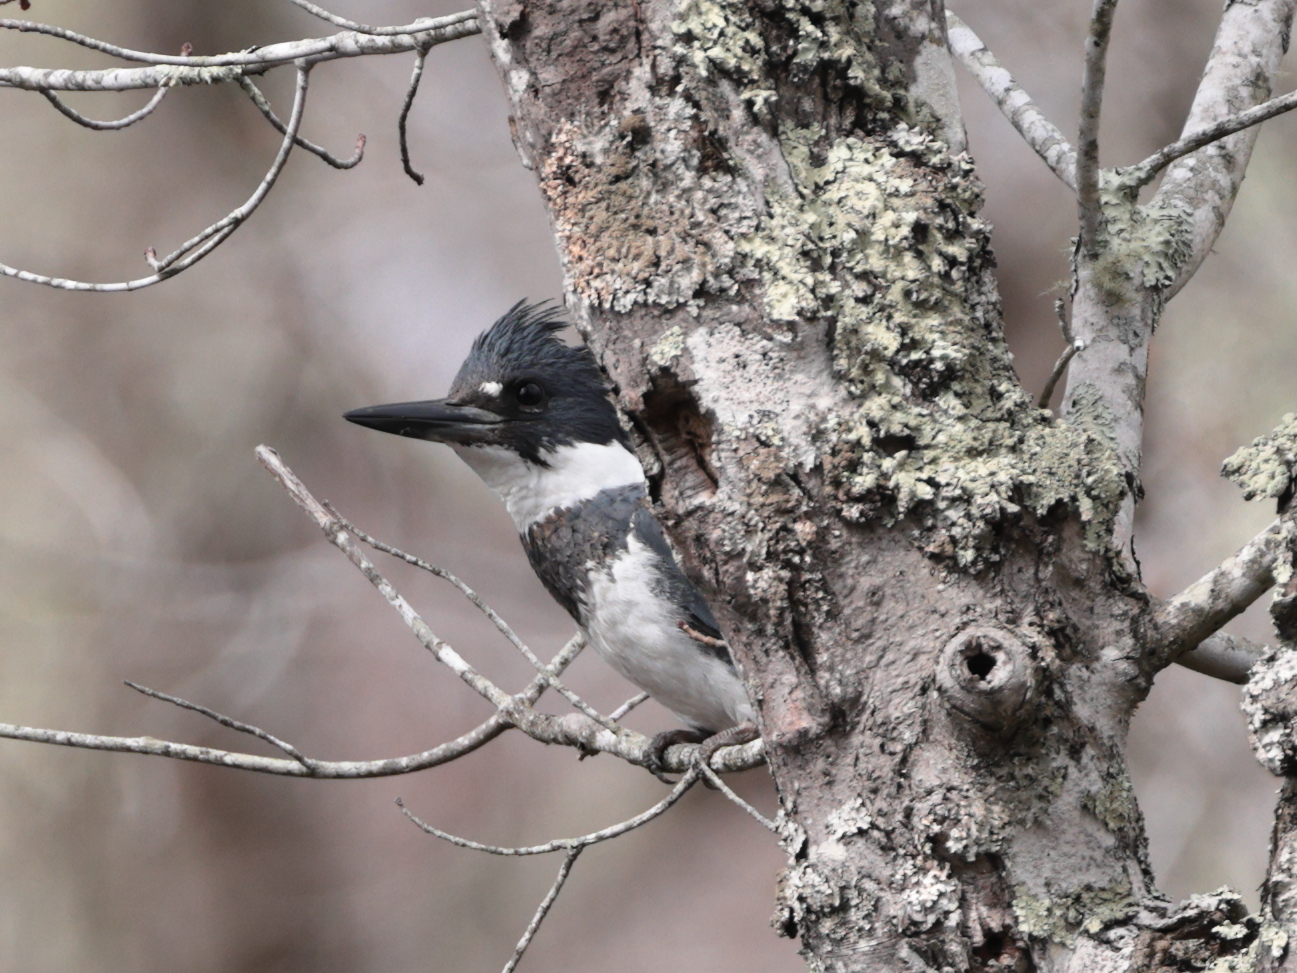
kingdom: Animalia
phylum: Chordata
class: Aves
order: Coraciiformes
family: Alcedinidae
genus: Megaceryle
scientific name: Megaceryle alcyon
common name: Belted kingfisher
